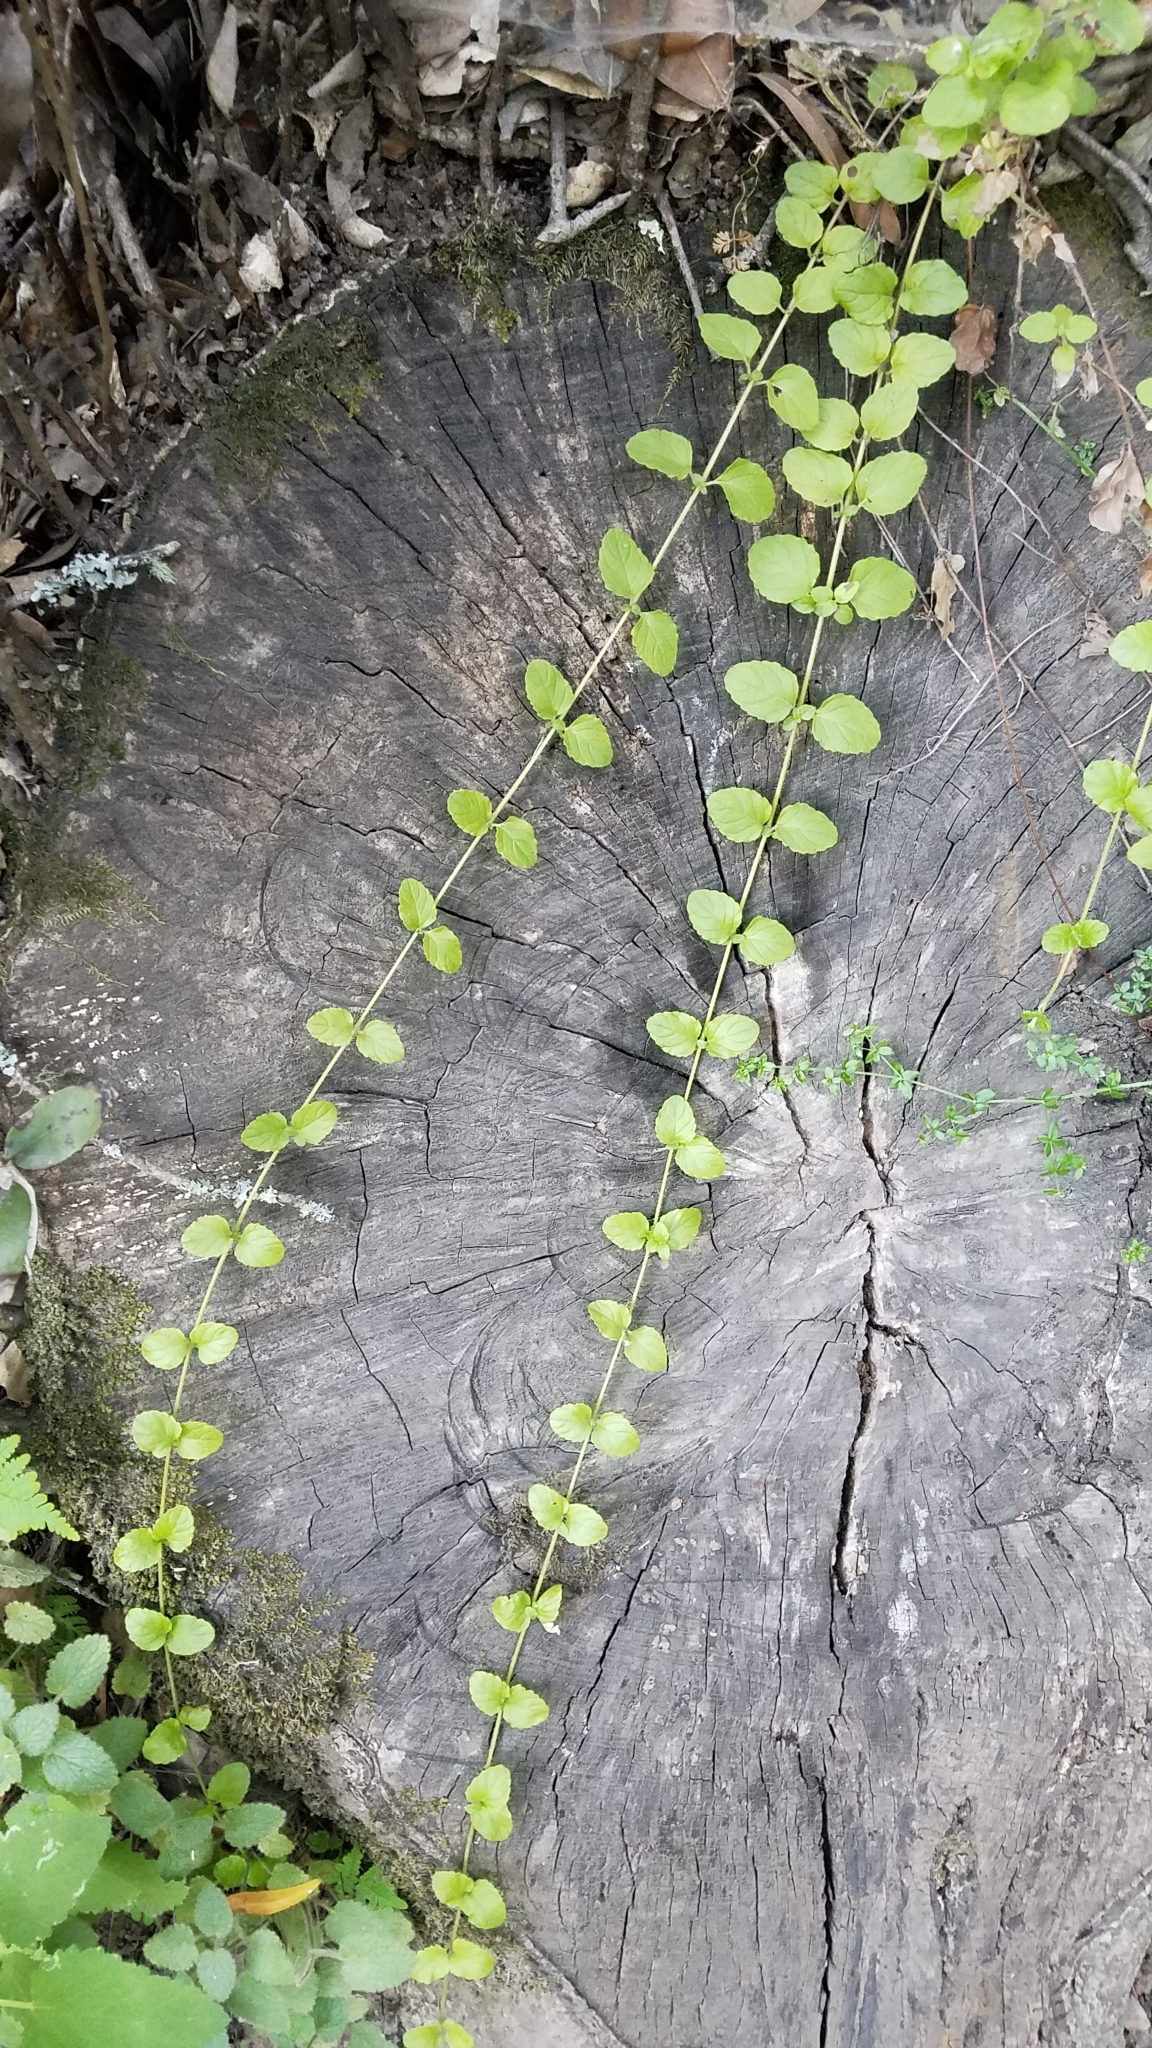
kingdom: Plantae
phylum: Tracheophyta
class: Magnoliopsida
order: Lamiales
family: Lamiaceae
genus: Micromeria
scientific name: Micromeria douglasii
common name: Yerba buena
